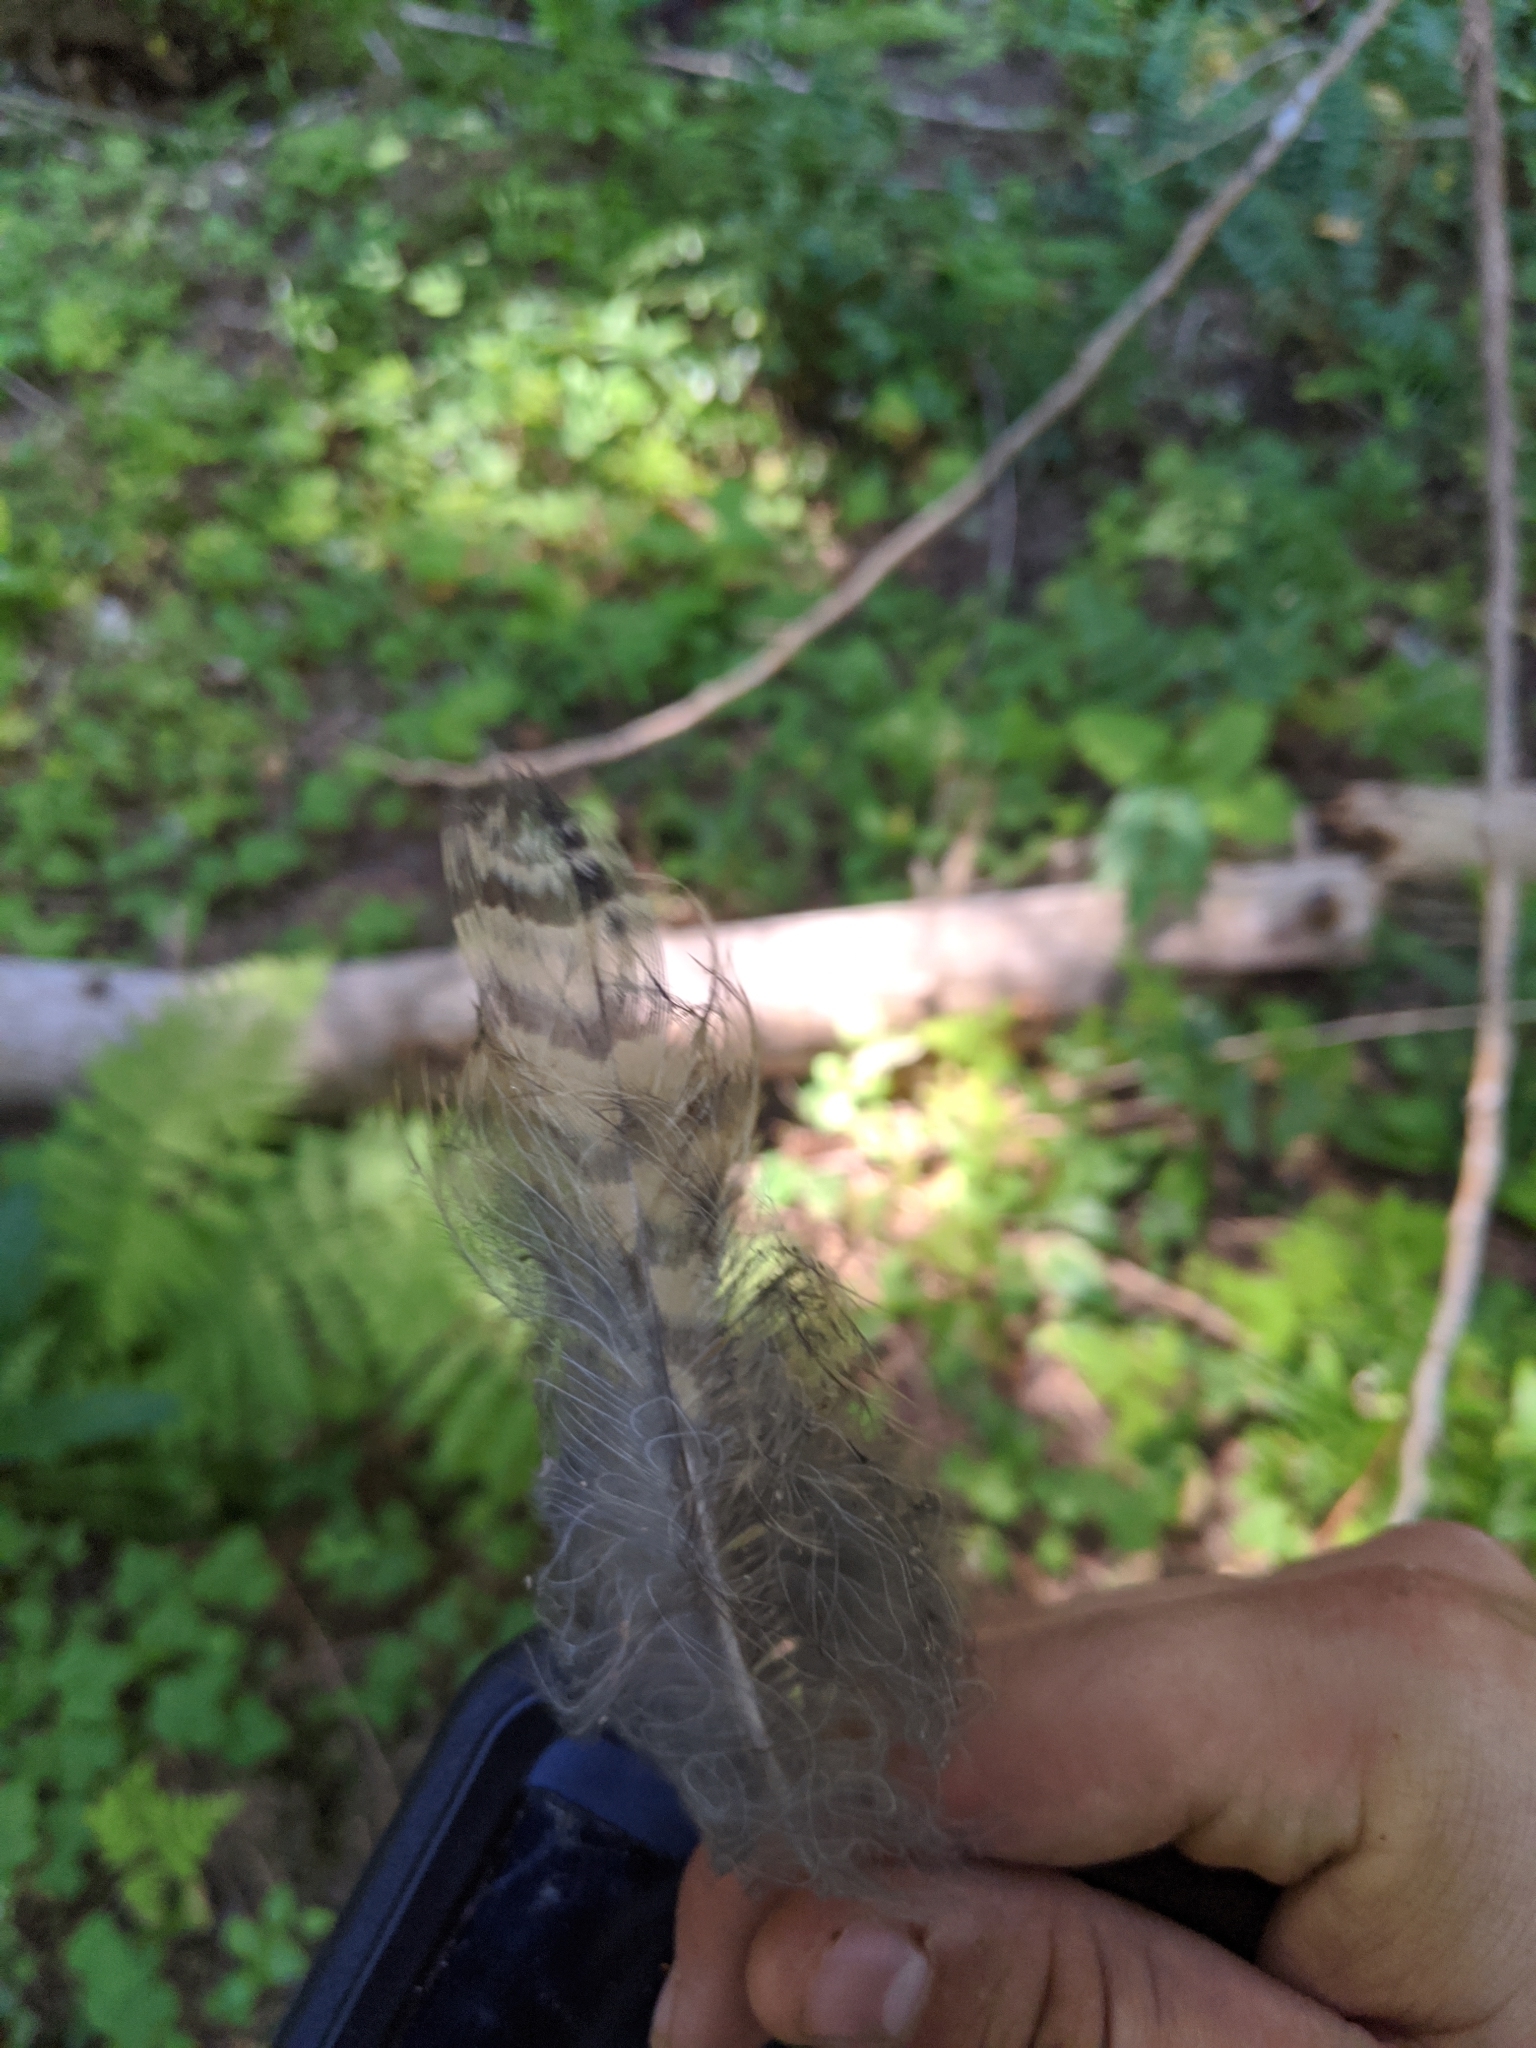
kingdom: Animalia
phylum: Chordata
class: Aves
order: Strigiformes
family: Strigidae
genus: Bubo
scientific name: Bubo virginianus
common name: Great horned owl
